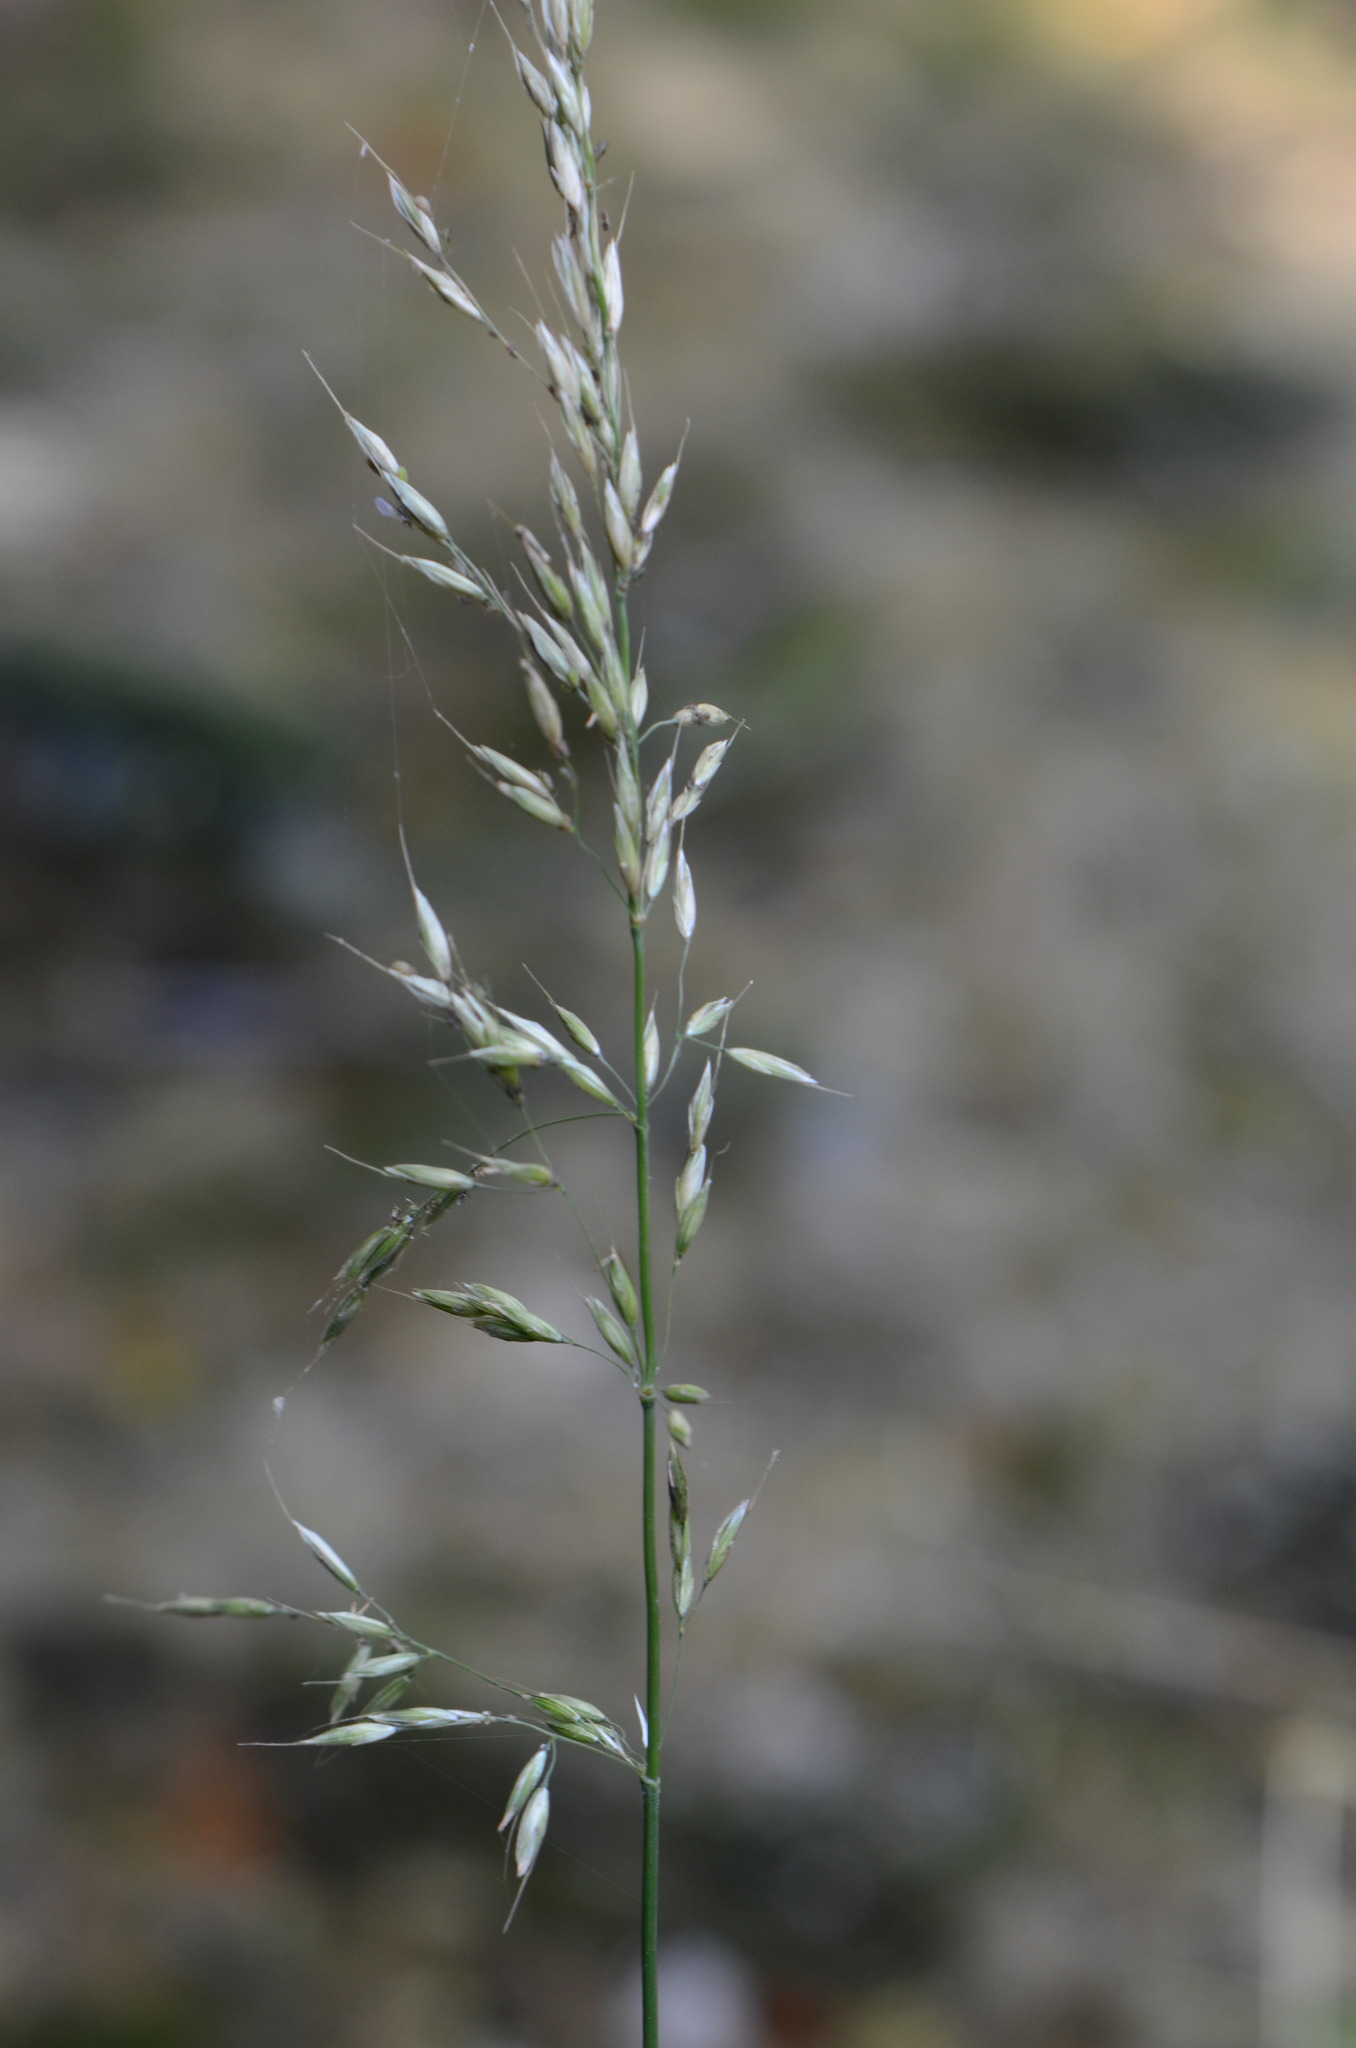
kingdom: Plantae
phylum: Tracheophyta
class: Liliopsida
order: Poales
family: Poaceae
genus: Arrhenatherum
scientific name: Arrhenatherum elatius
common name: Tall oatgrass
